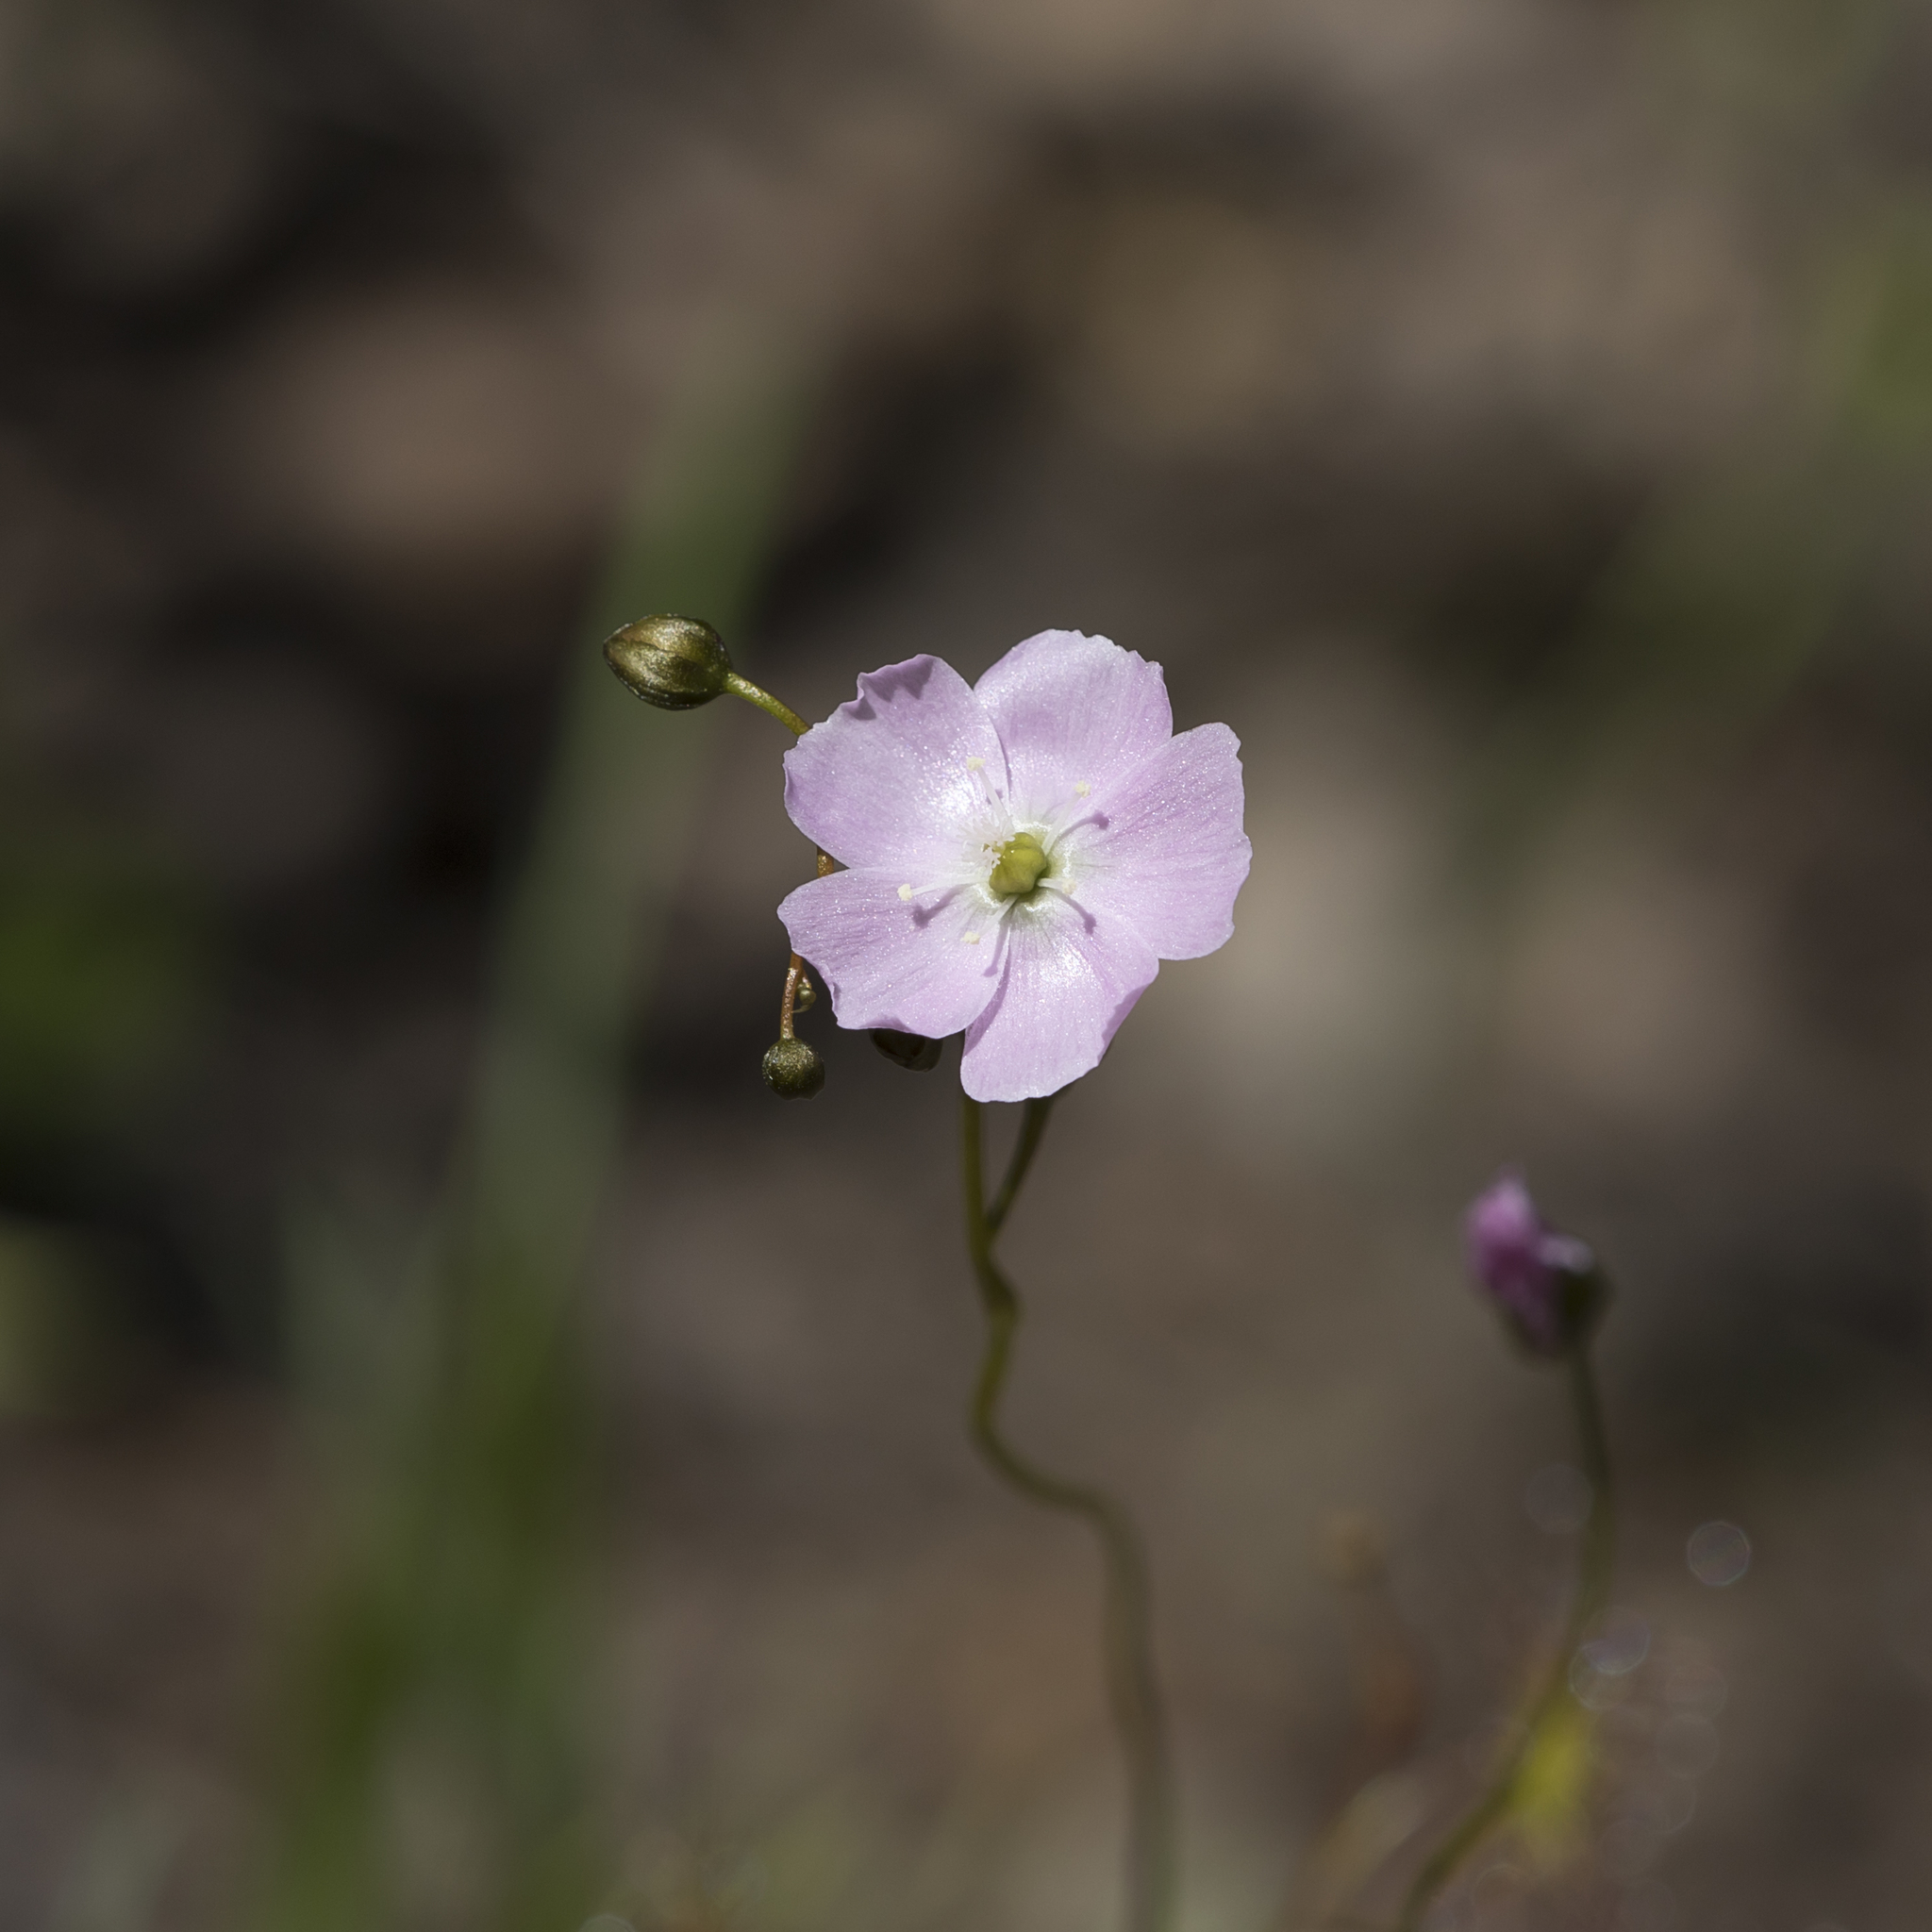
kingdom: Plantae
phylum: Tracheophyta
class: Magnoliopsida
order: Caryophyllales
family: Droseraceae
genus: Drosera
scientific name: Drosera peltata
